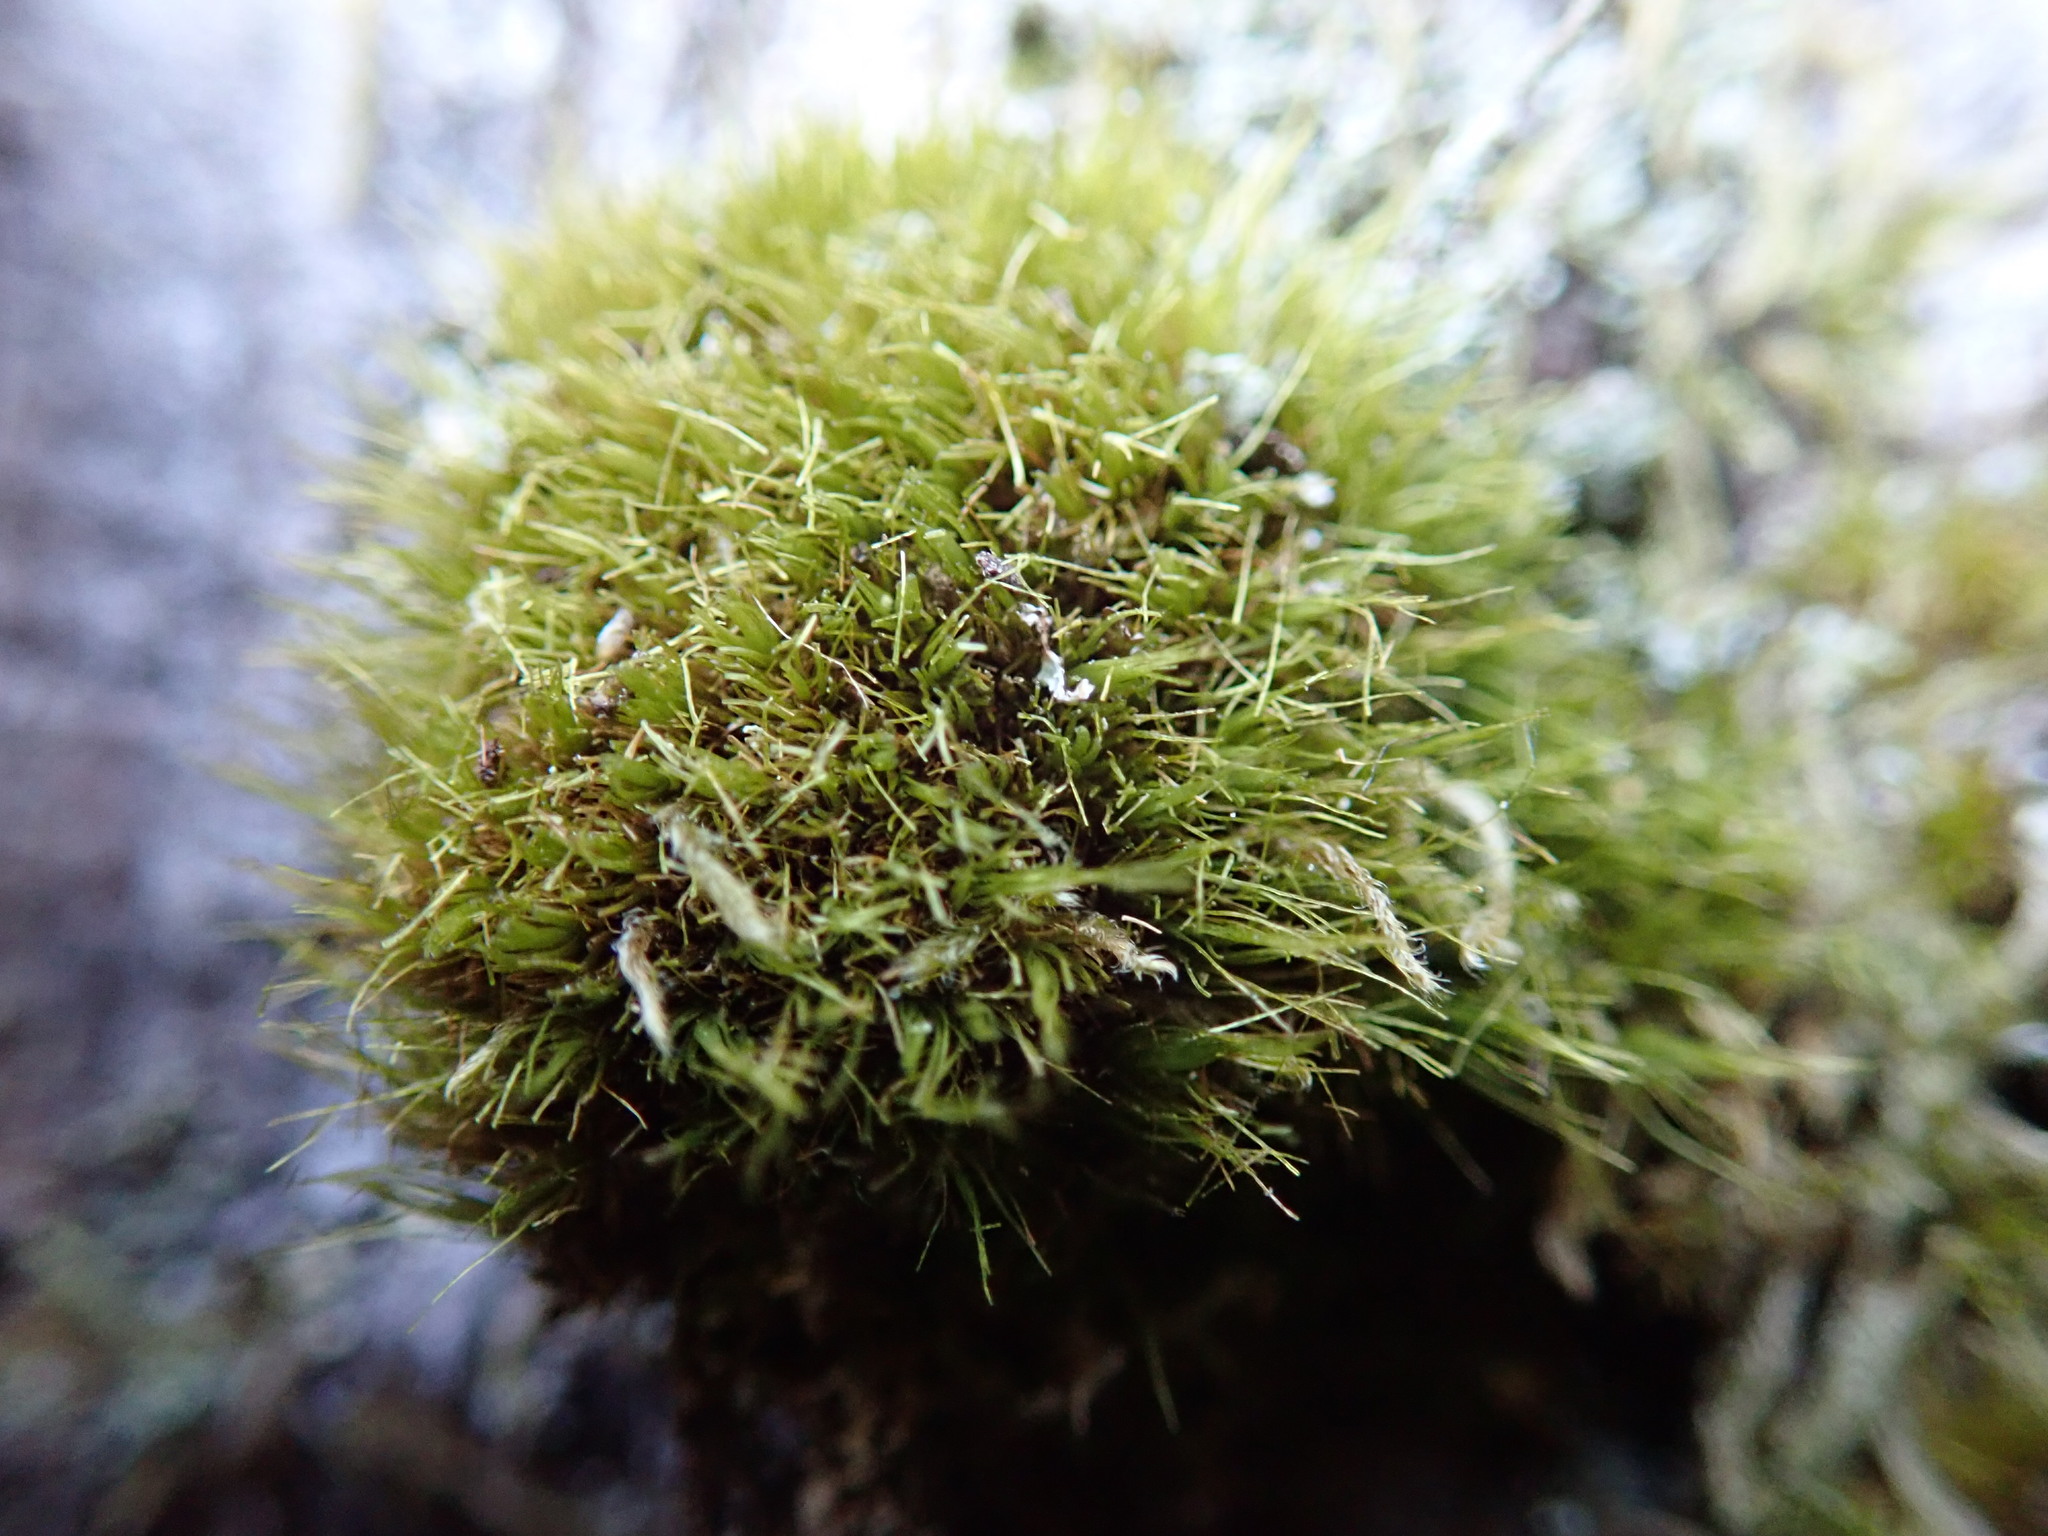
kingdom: Plantae
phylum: Bryophyta
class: Bryopsida
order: Dicranales
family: Dicranaceae
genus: Orthodicranum
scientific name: Orthodicranum tauricum
